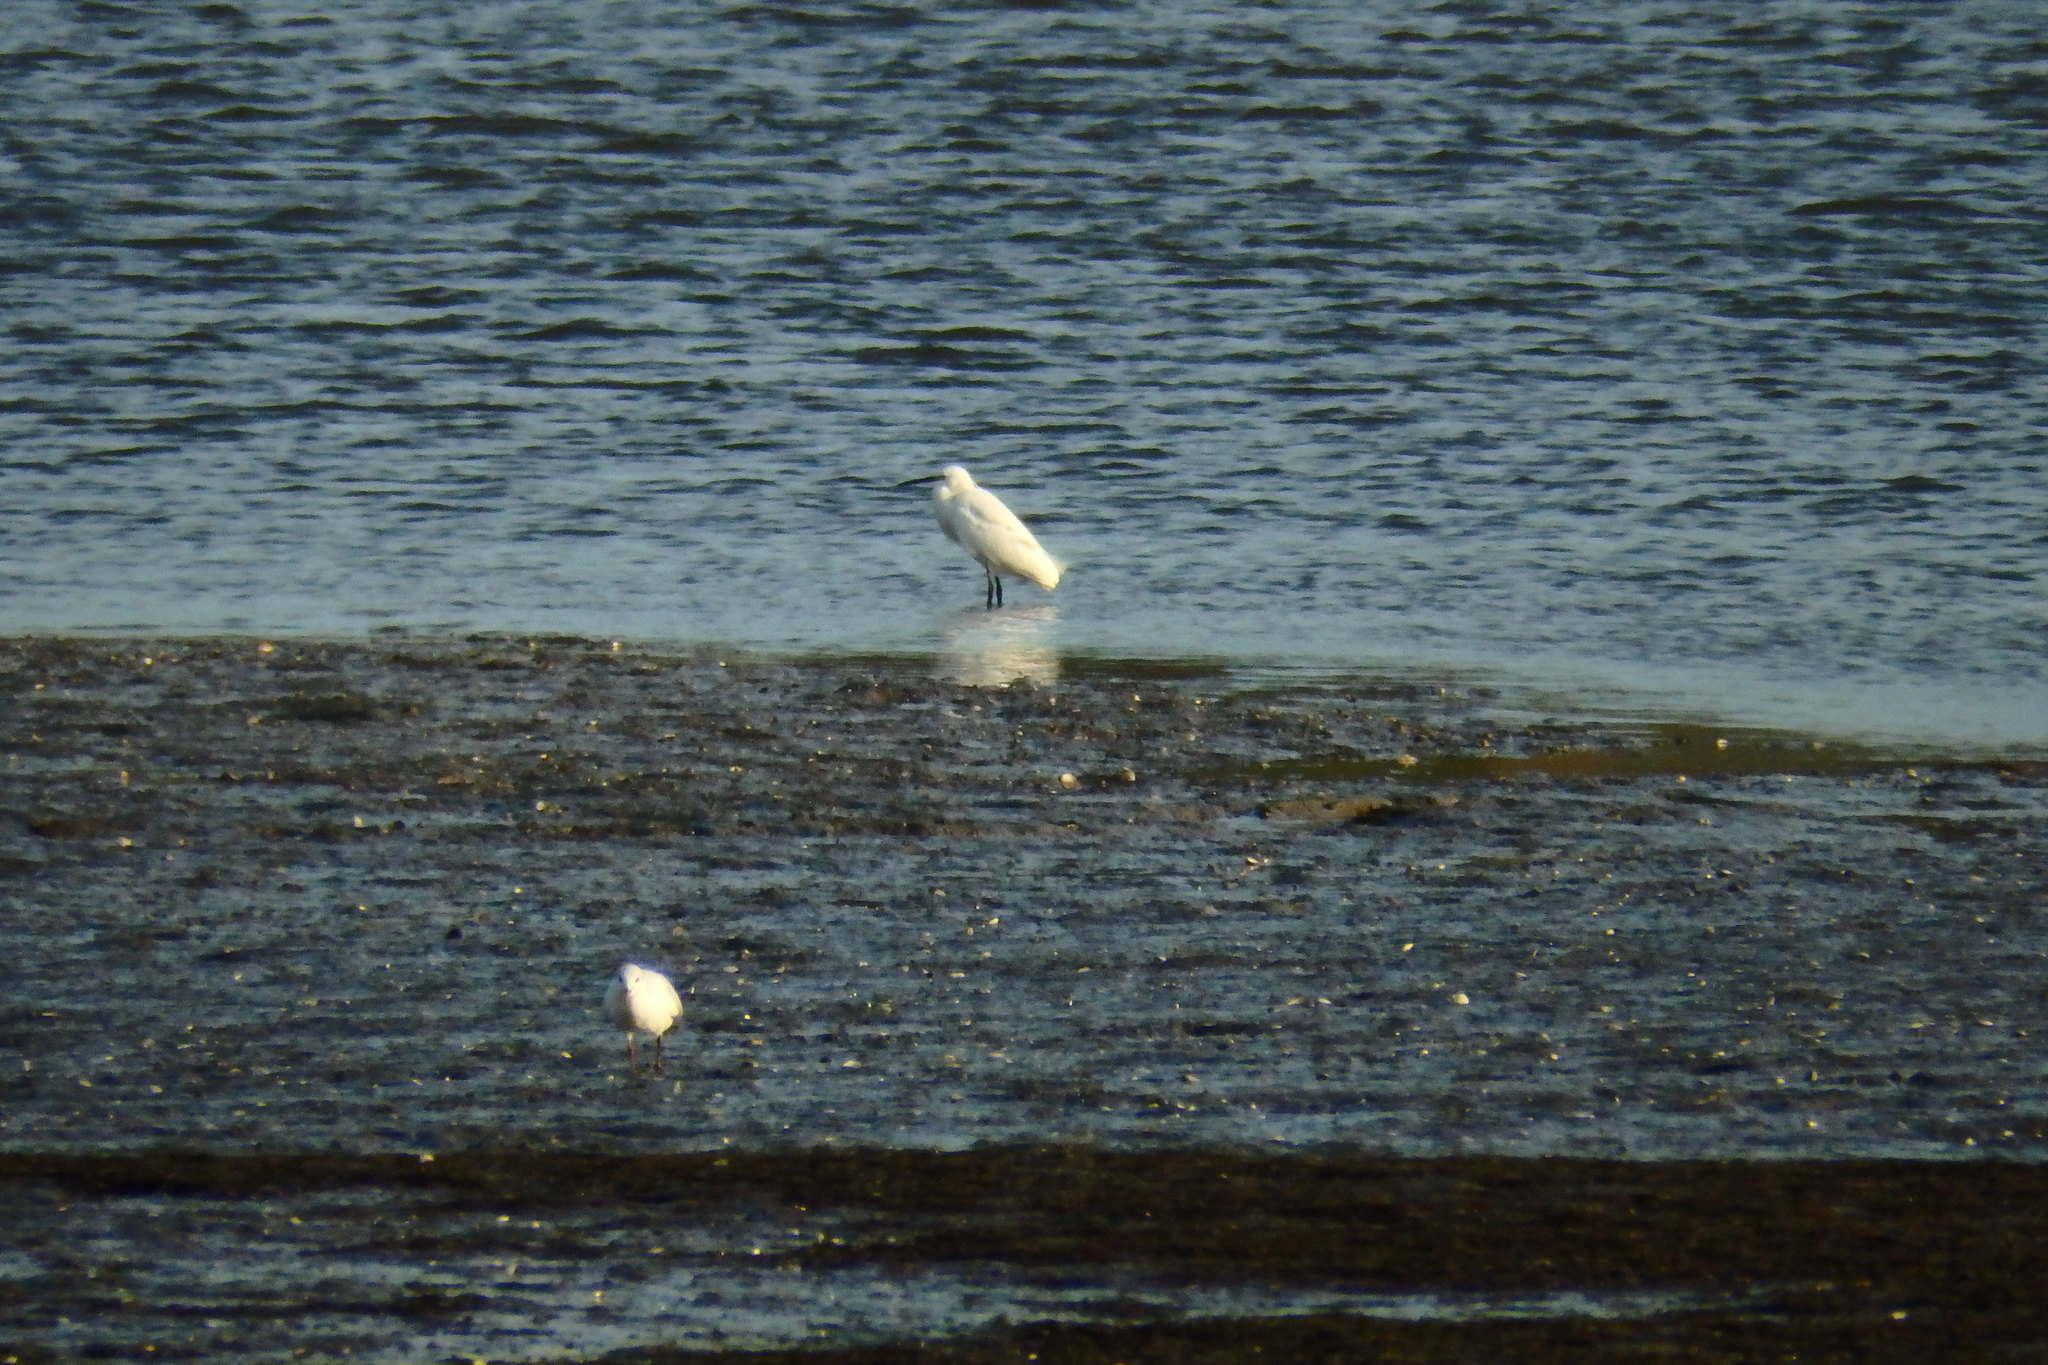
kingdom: Animalia
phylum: Chordata
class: Aves
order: Pelecaniformes
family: Ardeidae
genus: Egretta
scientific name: Egretta garzetta
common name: Little egret
